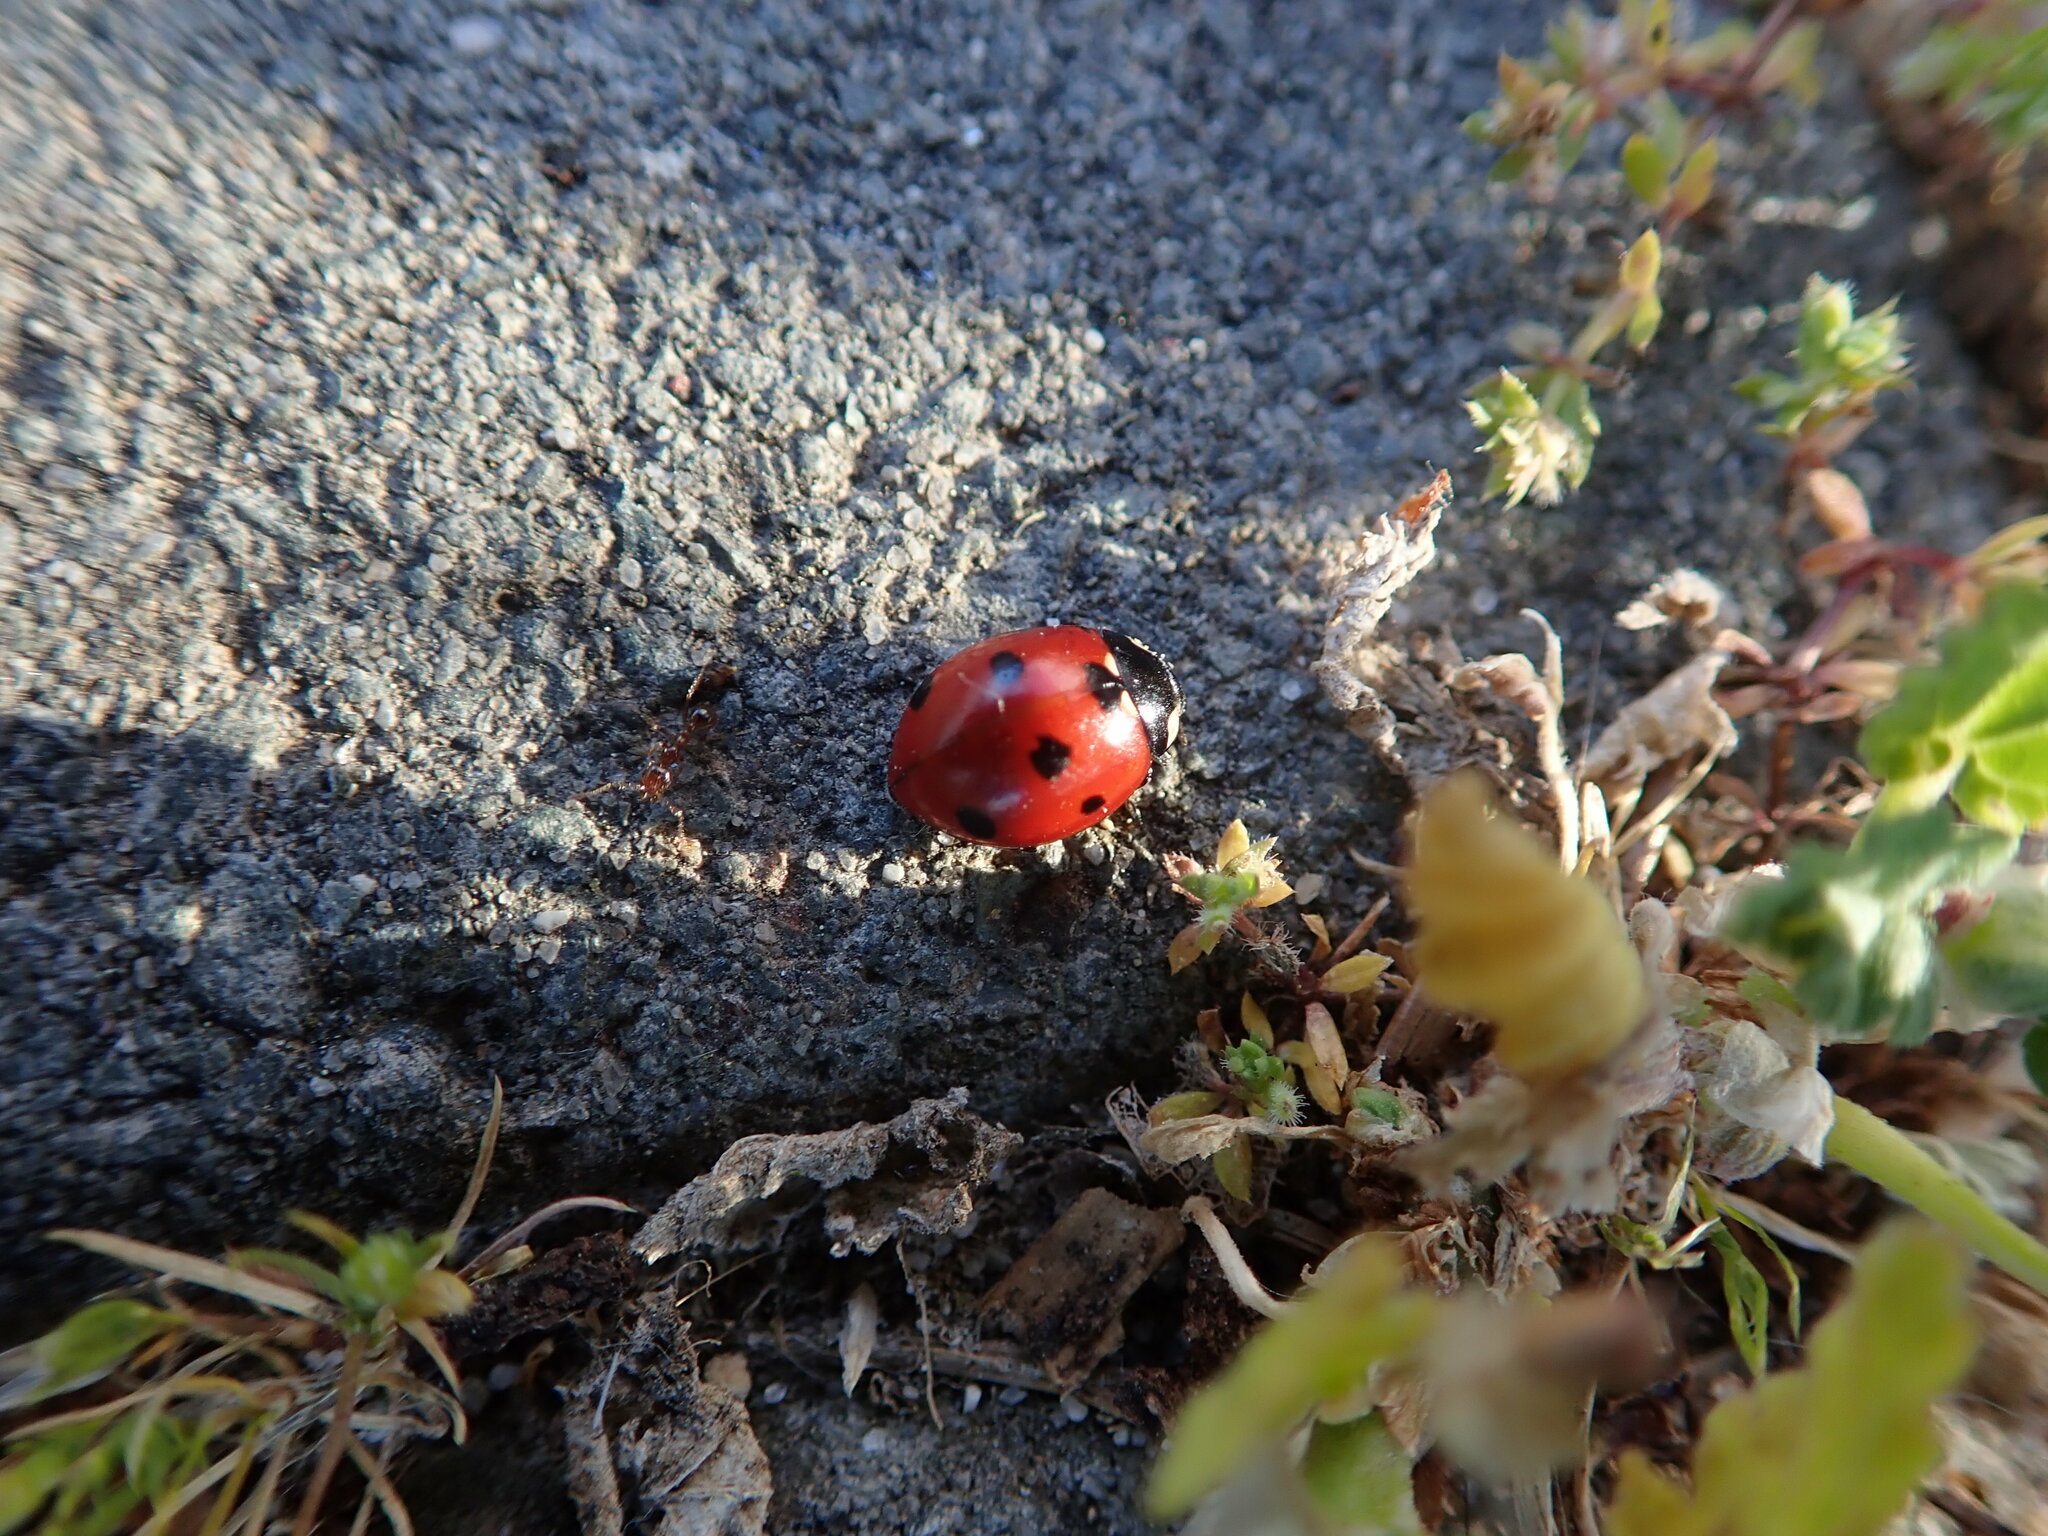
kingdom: Animalia
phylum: Arthropoda
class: Insecta
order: Coleoptera
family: Coccinellidae
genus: Coccinella
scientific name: Coccinella septempunctata
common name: Sevenspotted lady beetle
